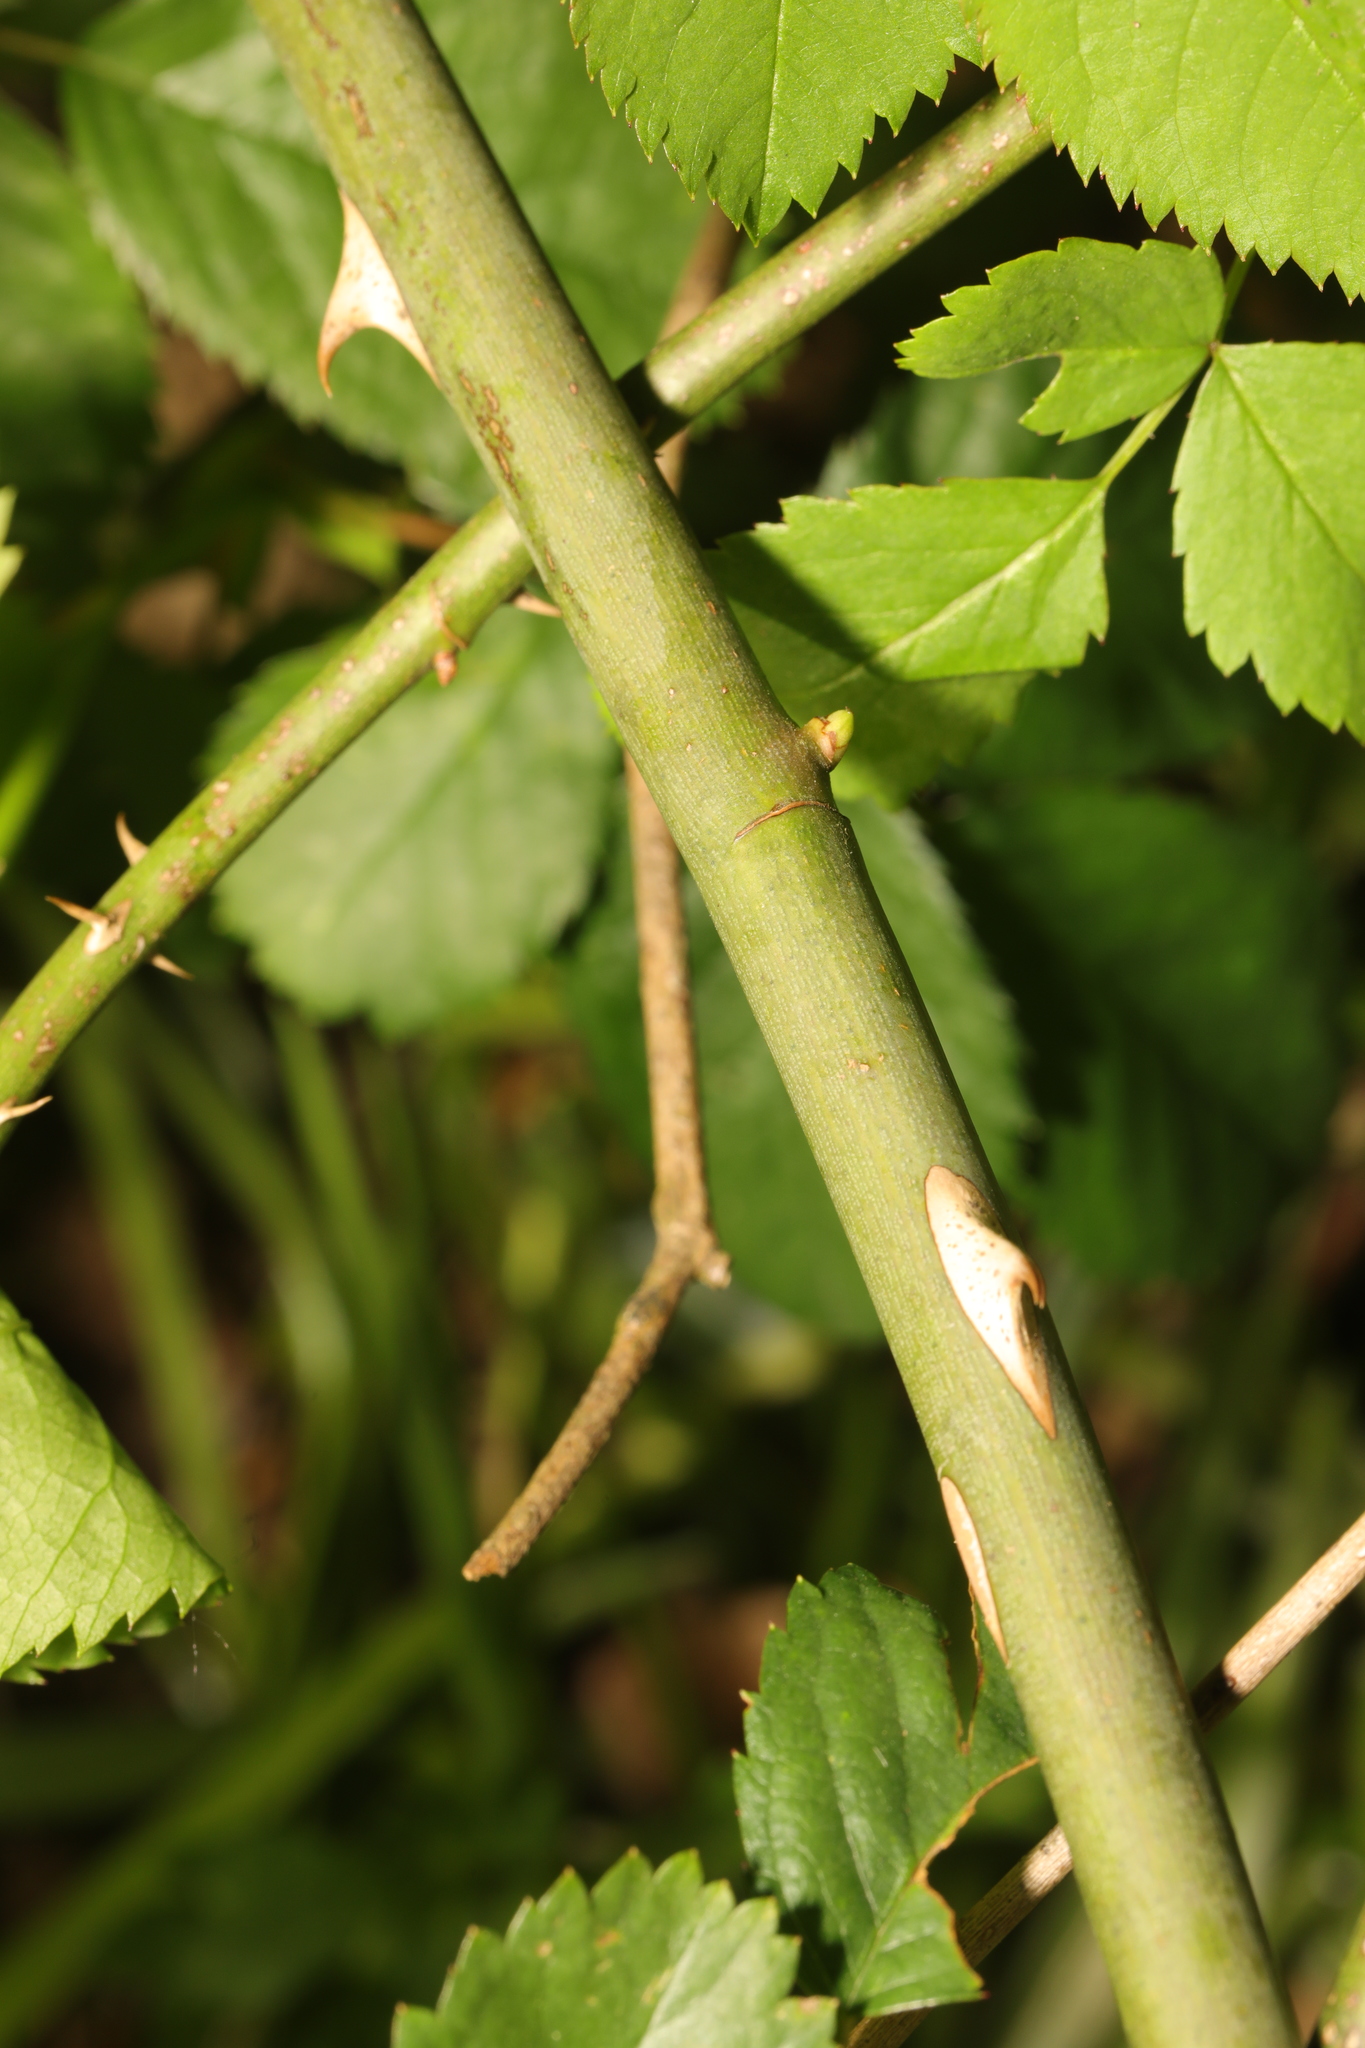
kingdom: Plantae
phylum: Tracheophyta
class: Magnoliopsida
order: Rosales
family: Rosaceae
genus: Rosa
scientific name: Rosa canina
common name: Dog rose
